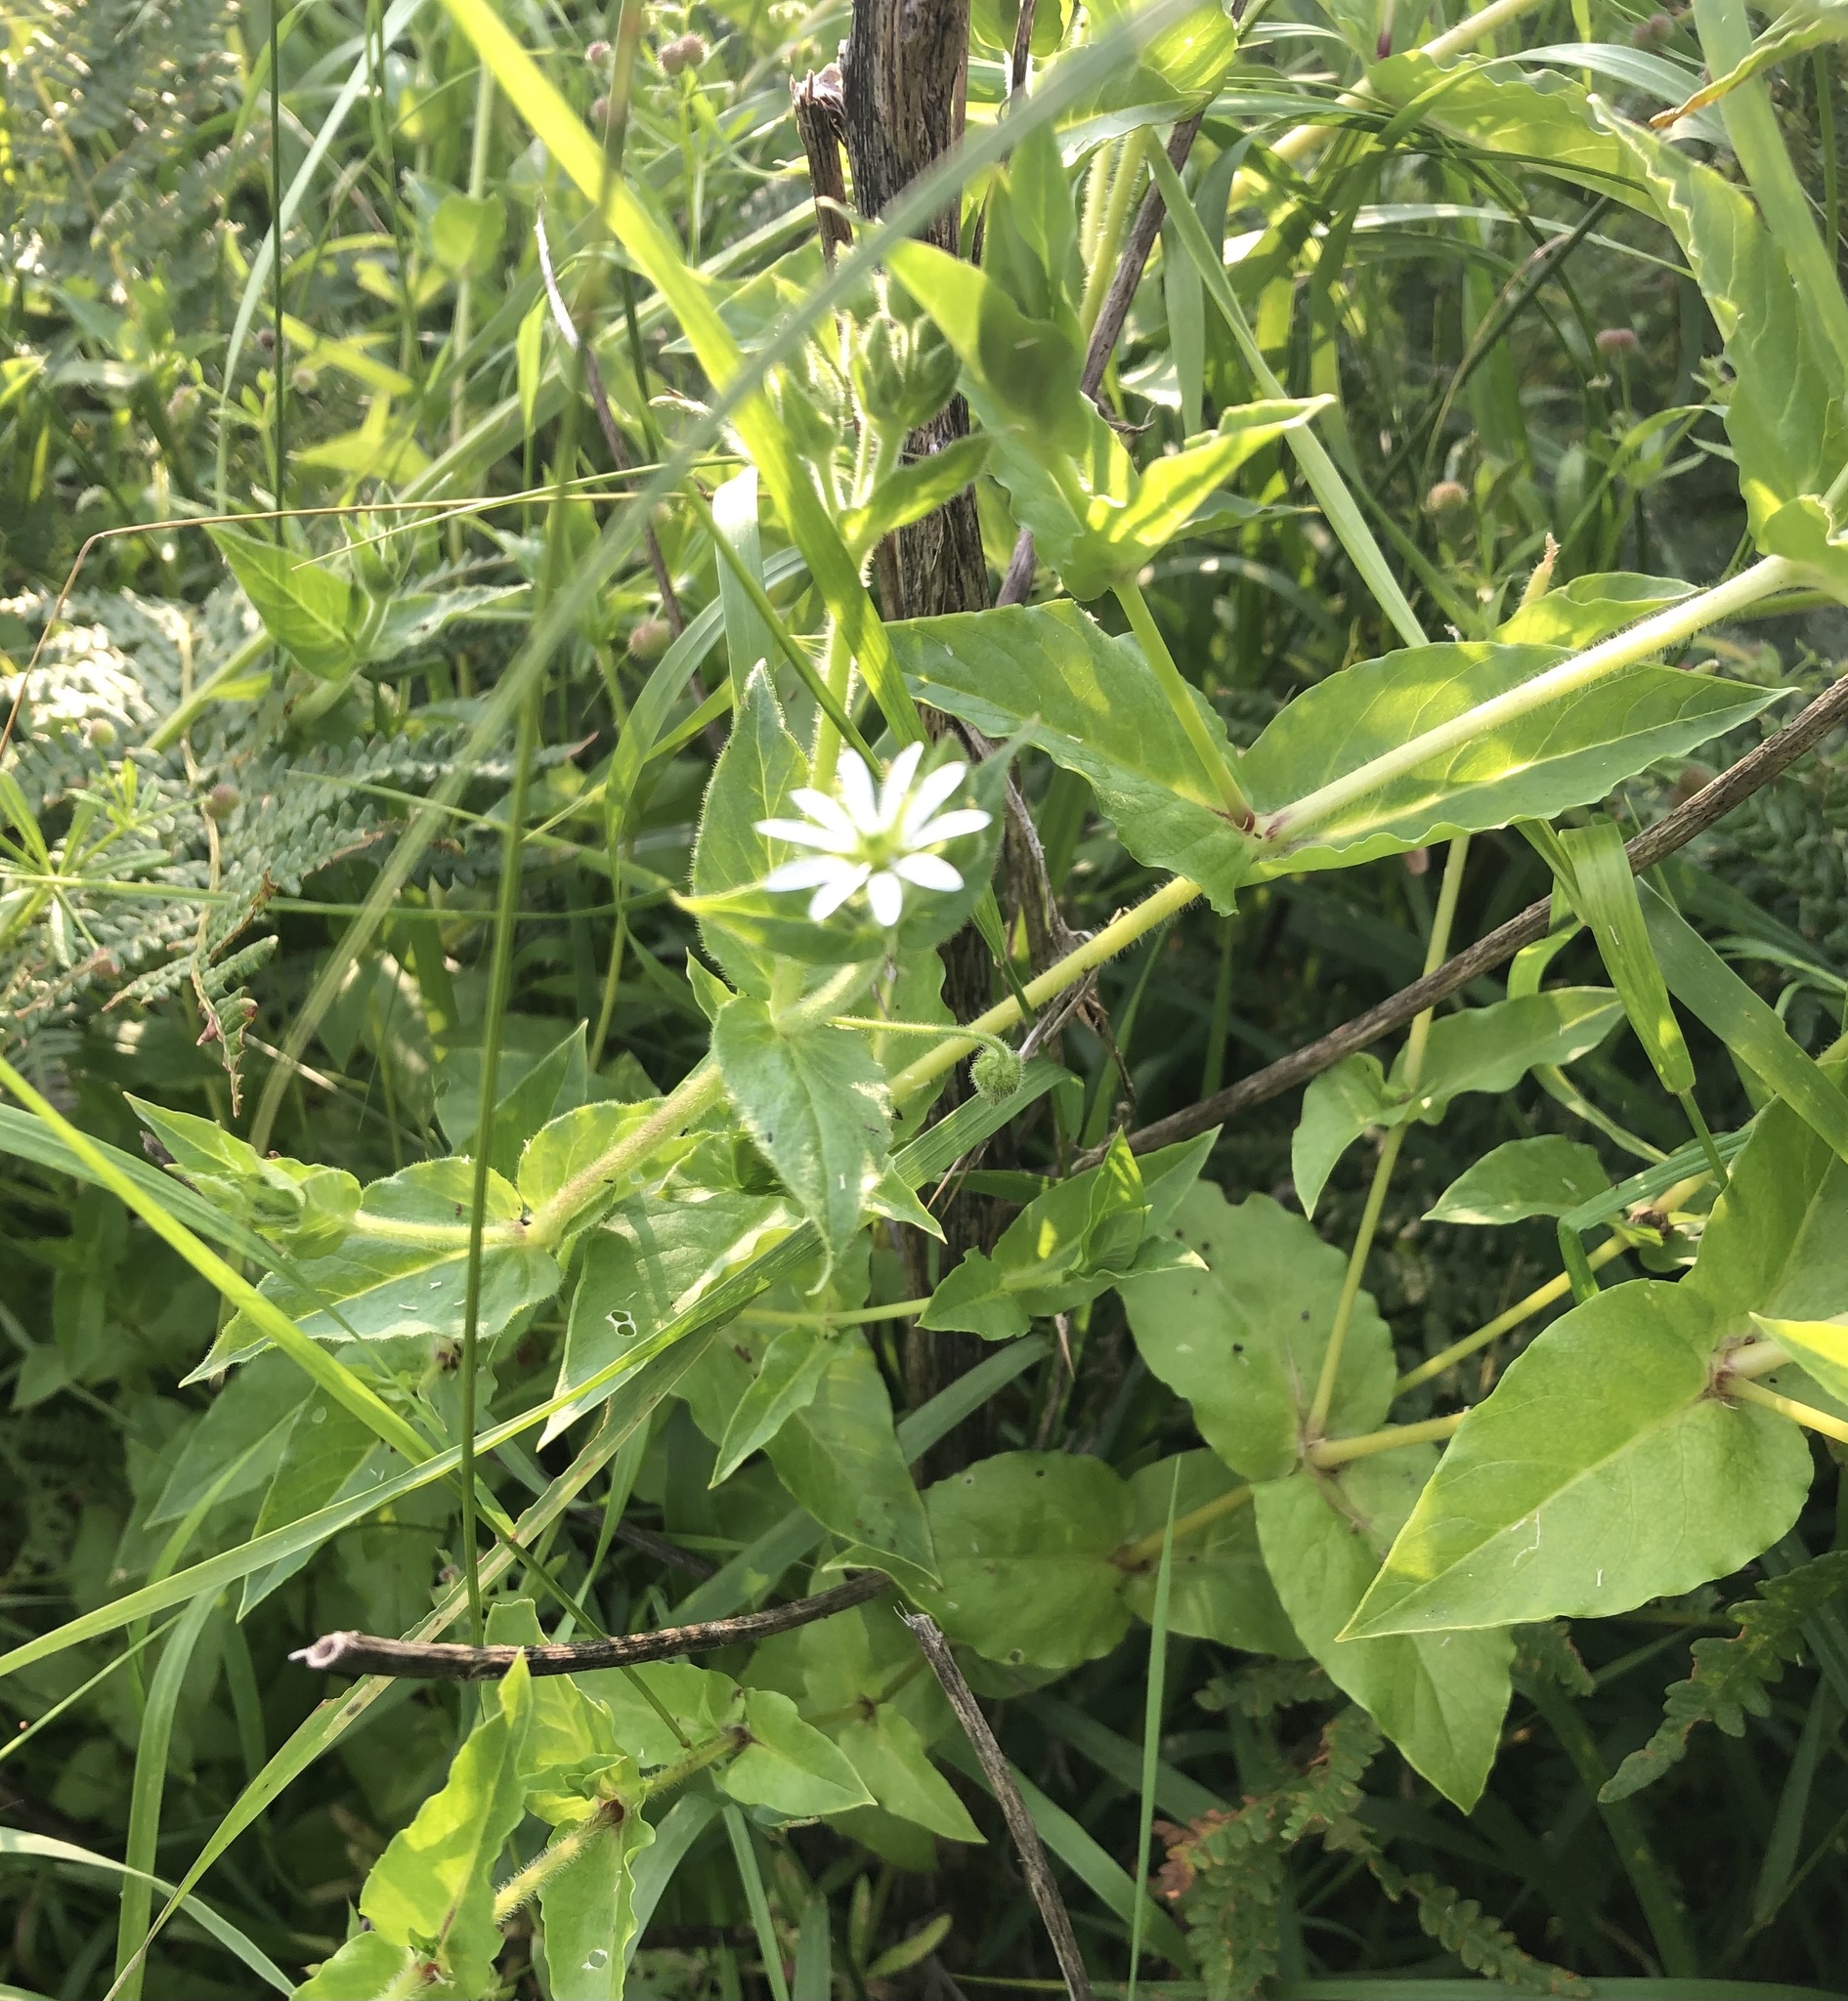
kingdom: Plantae
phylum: Tracheophyta
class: Magnoliopsida
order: Caryophyllales
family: Caryophyllaceae
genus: Stellaria
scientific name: Stellaria aquatica
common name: Water chickweed
